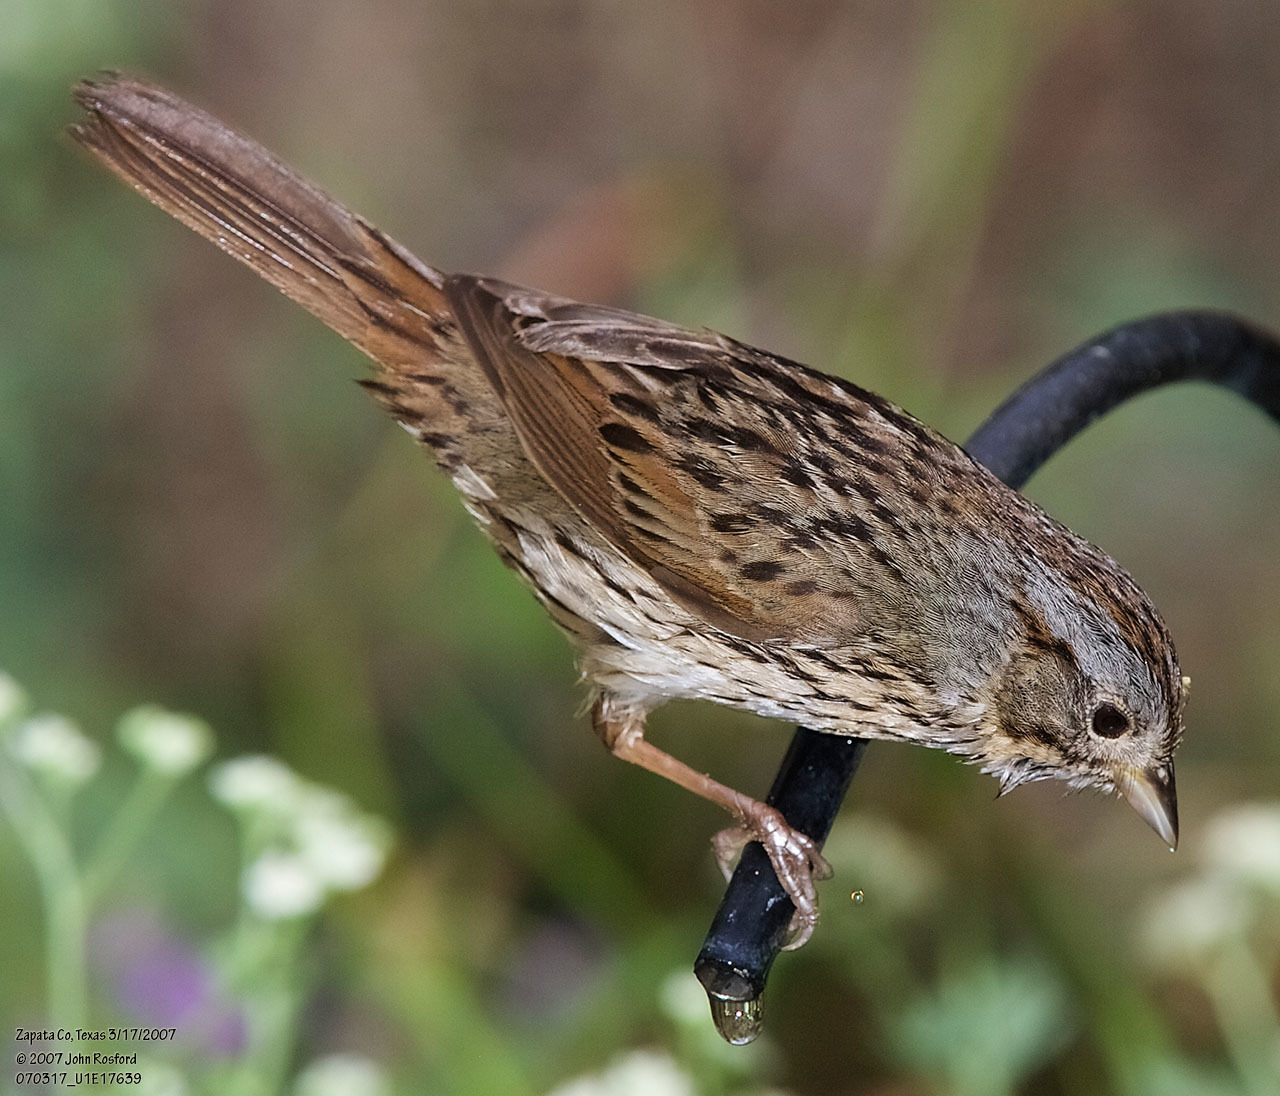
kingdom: Animalia
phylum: Chordata
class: Aves
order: Passeriformes
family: Passerellidae
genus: Melospiza
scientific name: Melospiza lincolnii
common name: Lincoln's sparrow
